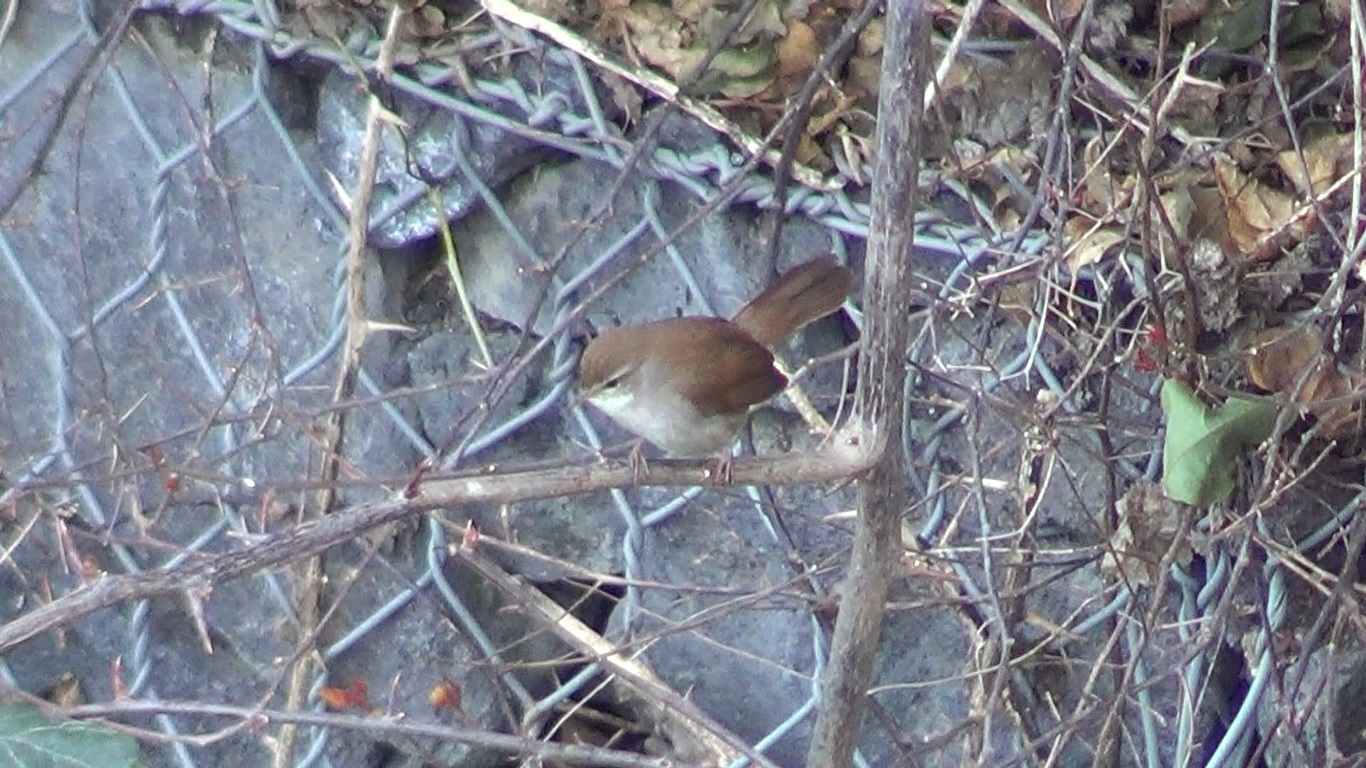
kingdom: Animalia
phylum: Chordata
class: Aves
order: Passeriformes
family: Cettiidae
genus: Cettia
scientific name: Cettia cetti
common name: Cetti's warbler
